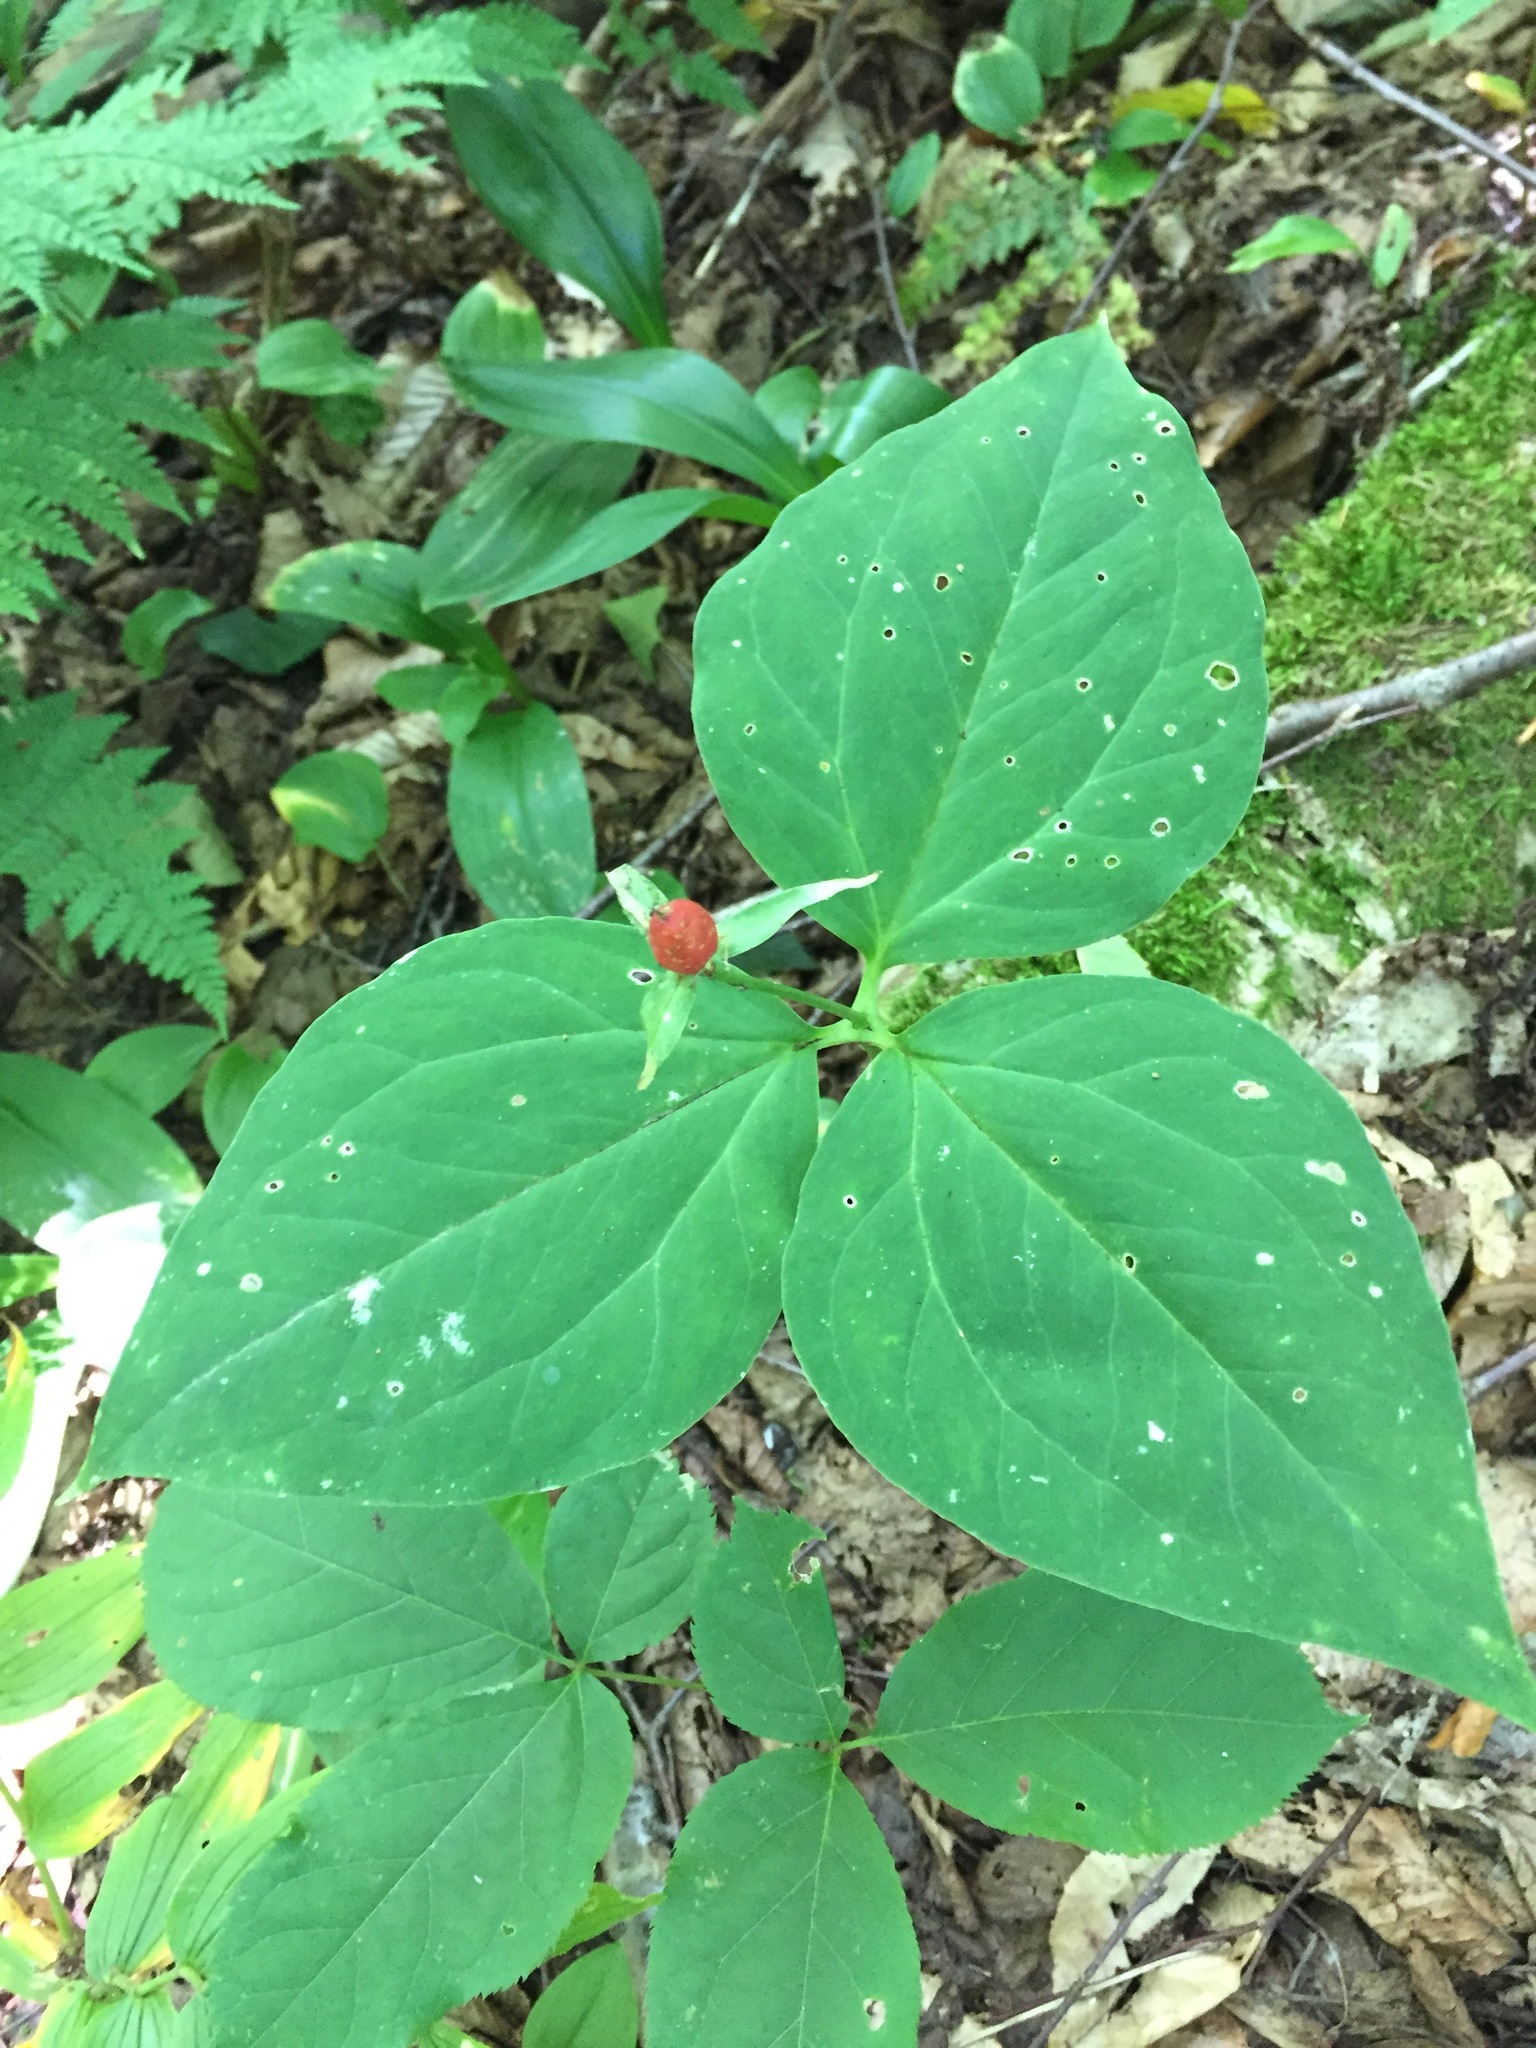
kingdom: Plantae
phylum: Tracheophyta
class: Liliopsida
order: Liliales
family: Melanthiaceae
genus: Trillium
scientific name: Trillium undulatum
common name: Paint trillium
